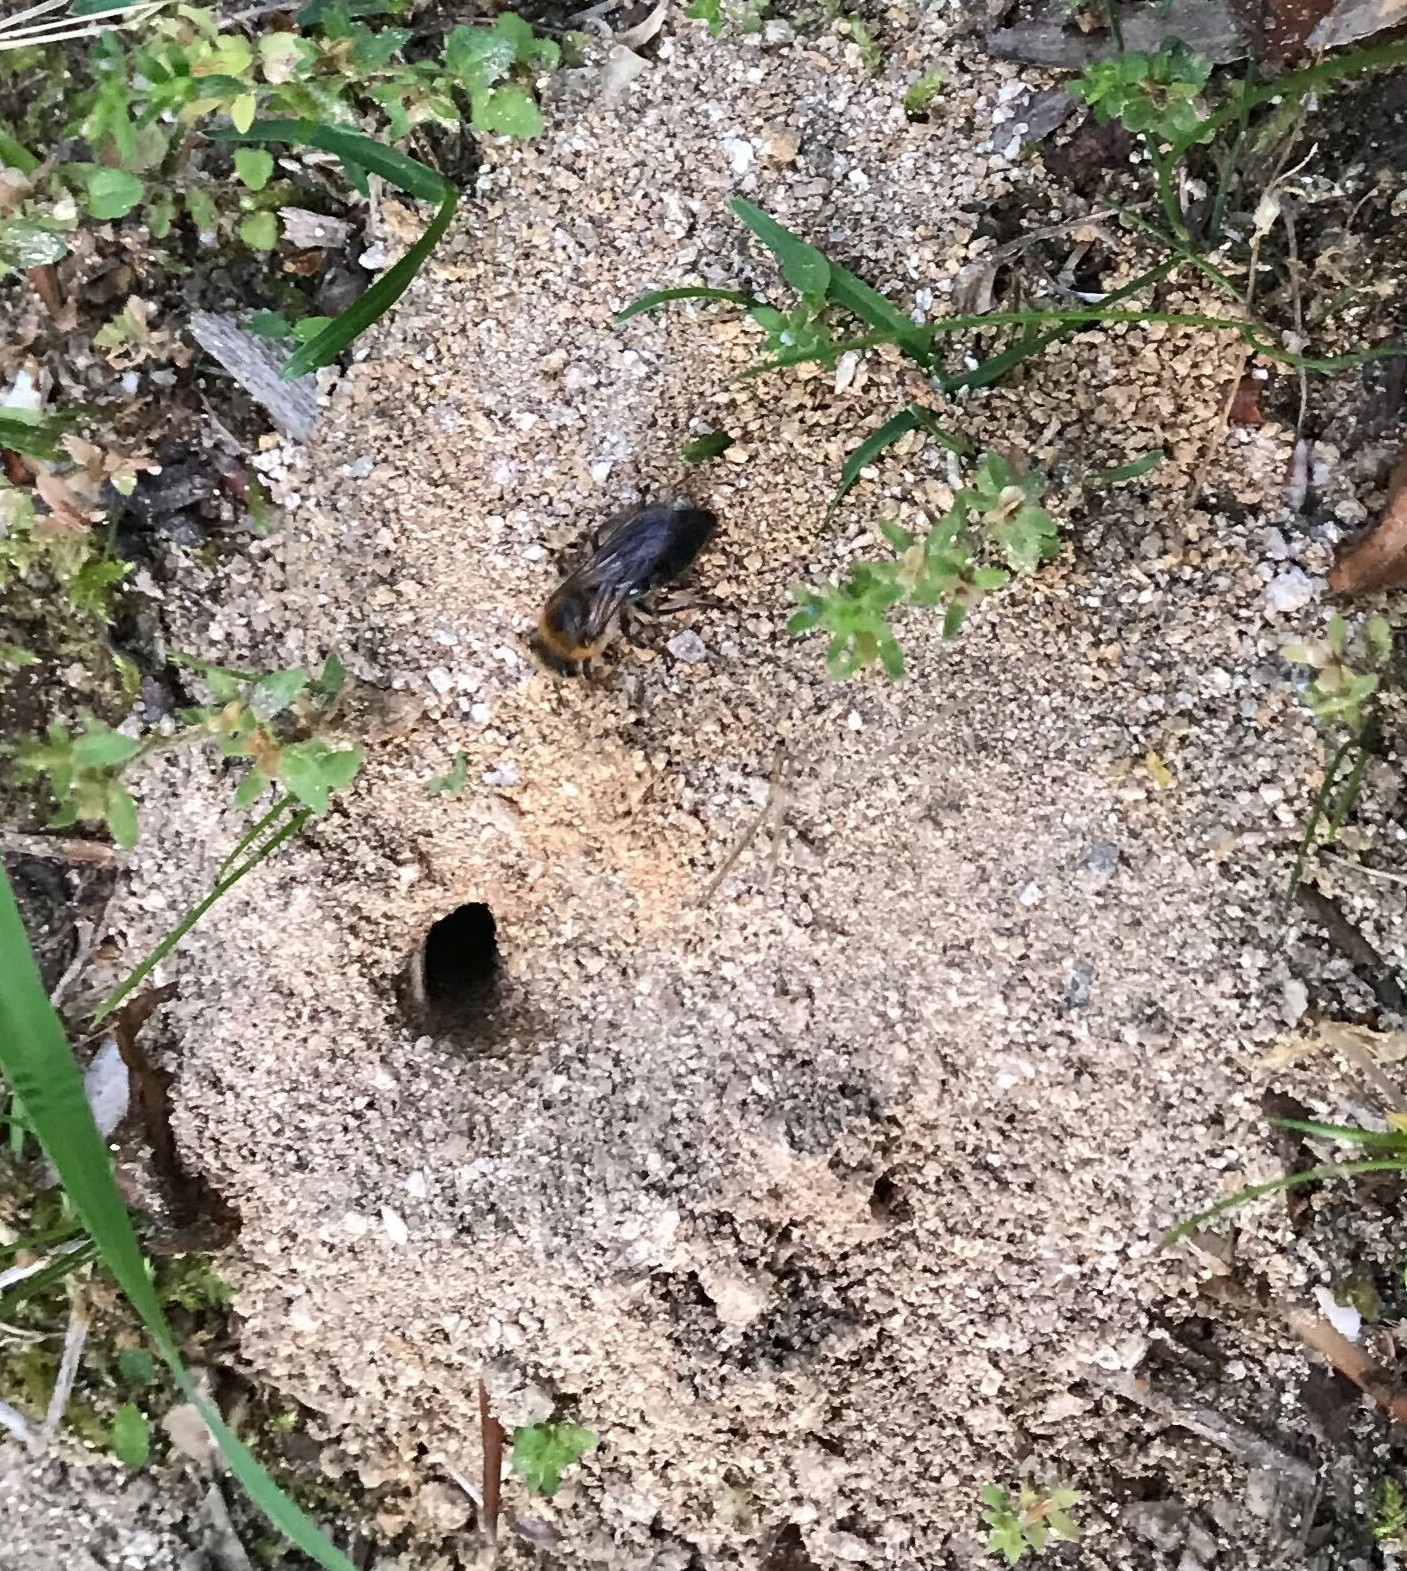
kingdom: Animalia
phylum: Arthropoda
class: Insecta
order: Hymenoptera
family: Colletidae
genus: Colletes
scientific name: Colletes thoracicus
